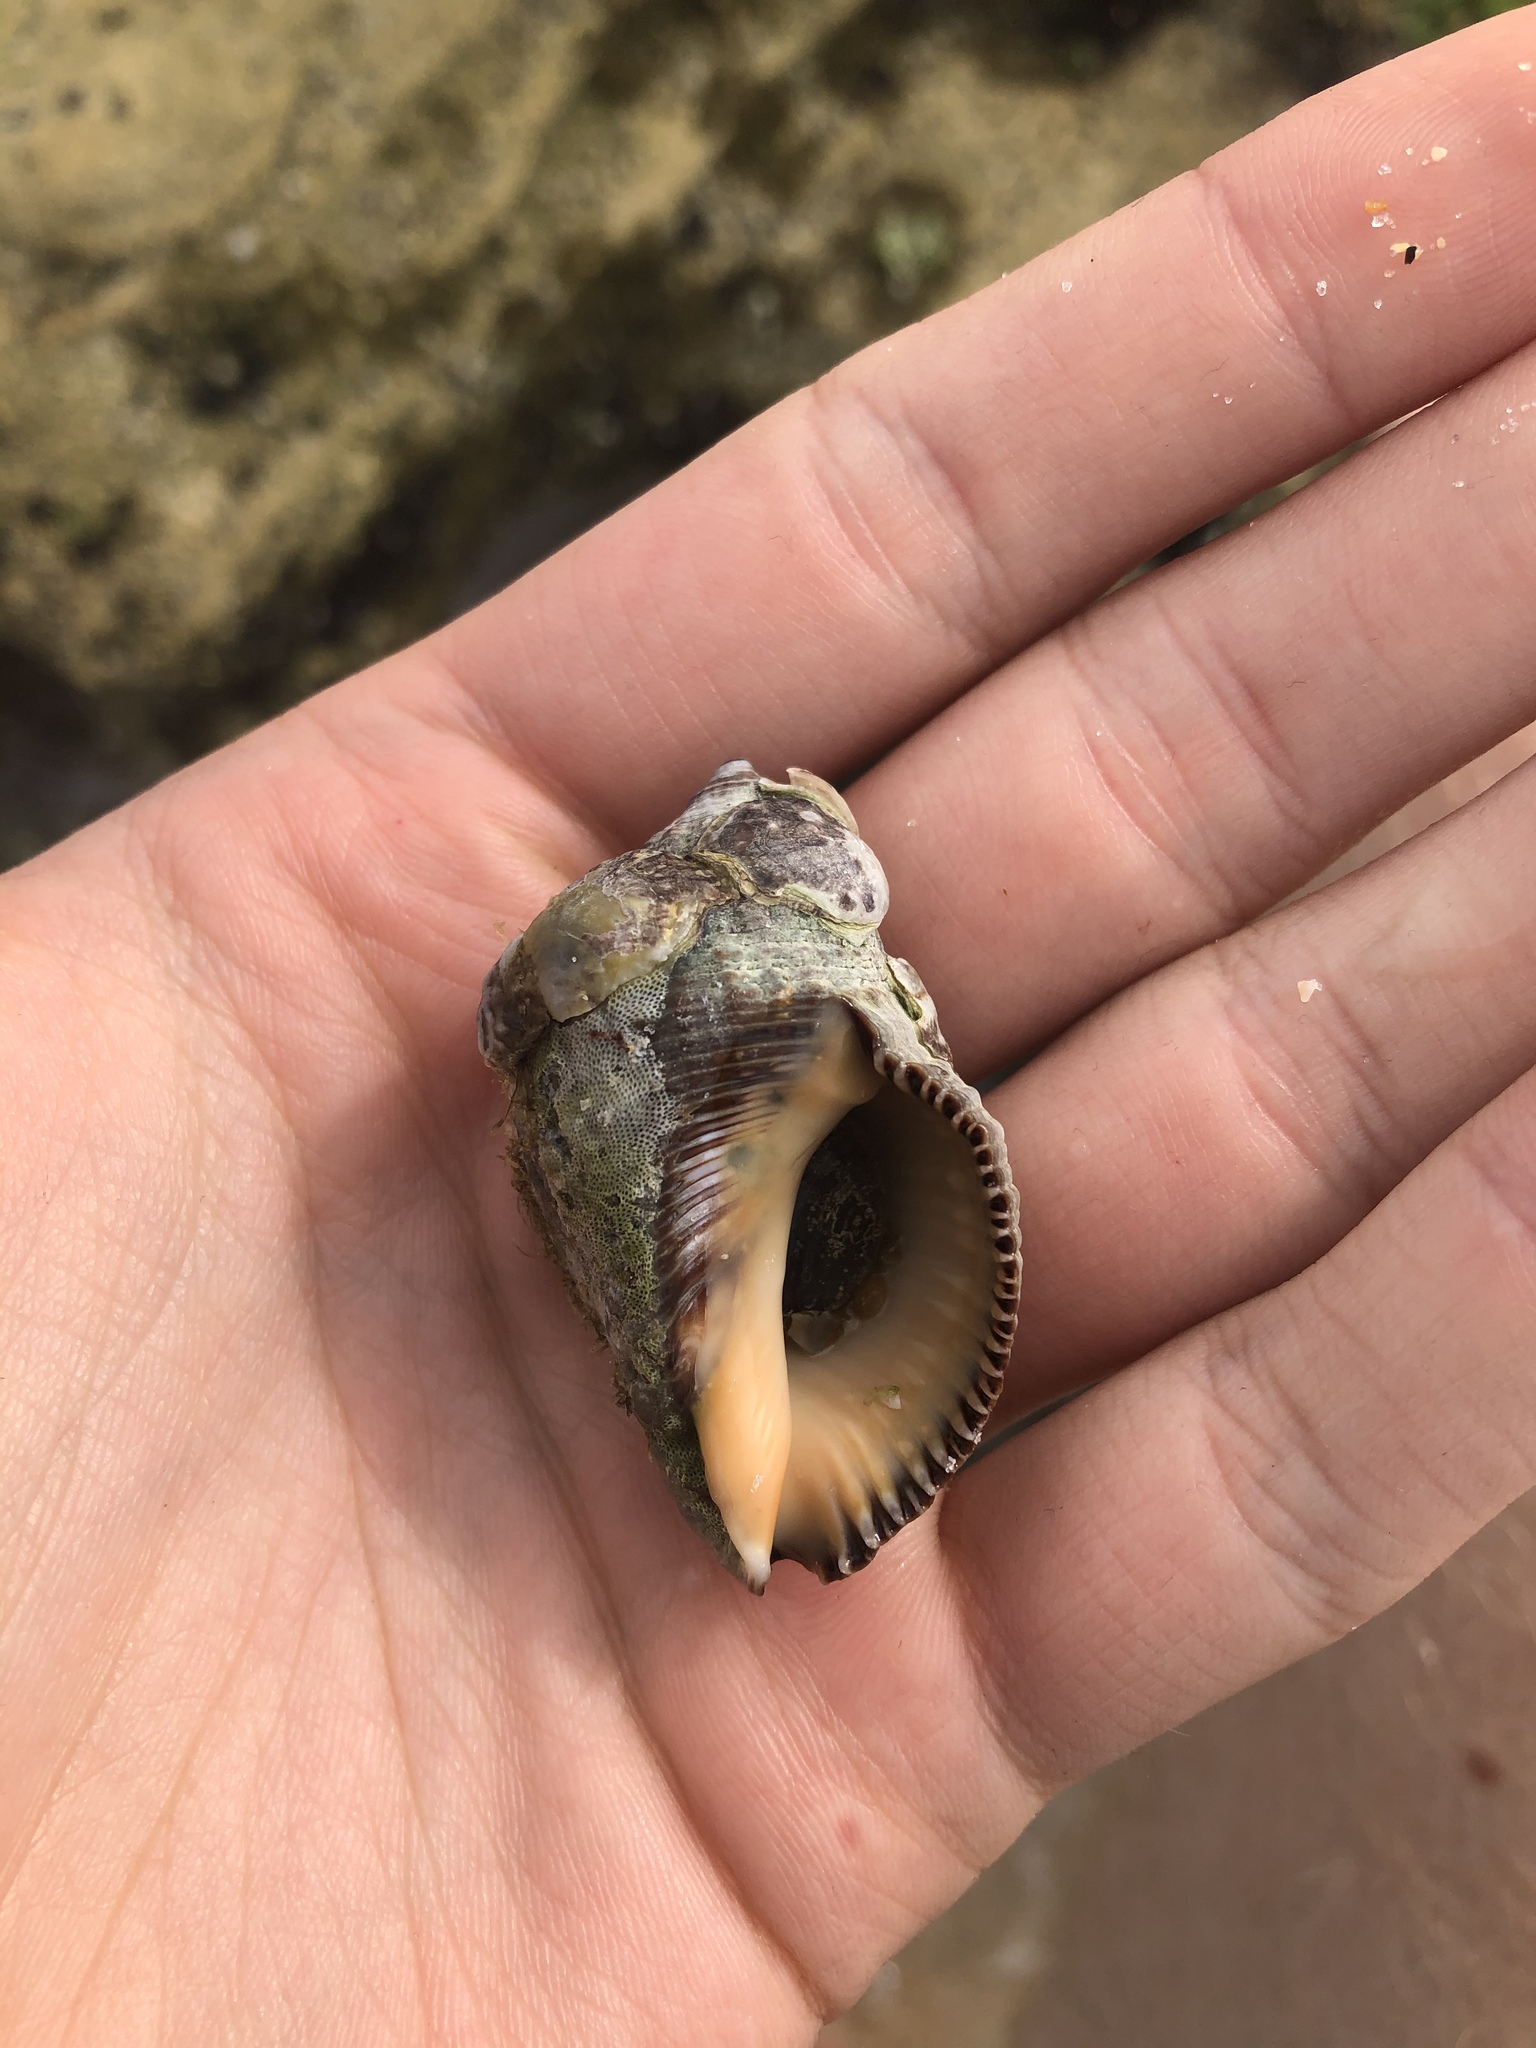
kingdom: Animalia
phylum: Mollusca
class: Gastropoda
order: Neogastropoda
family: Muricidae
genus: Stramonita
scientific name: Stramonita floridana
